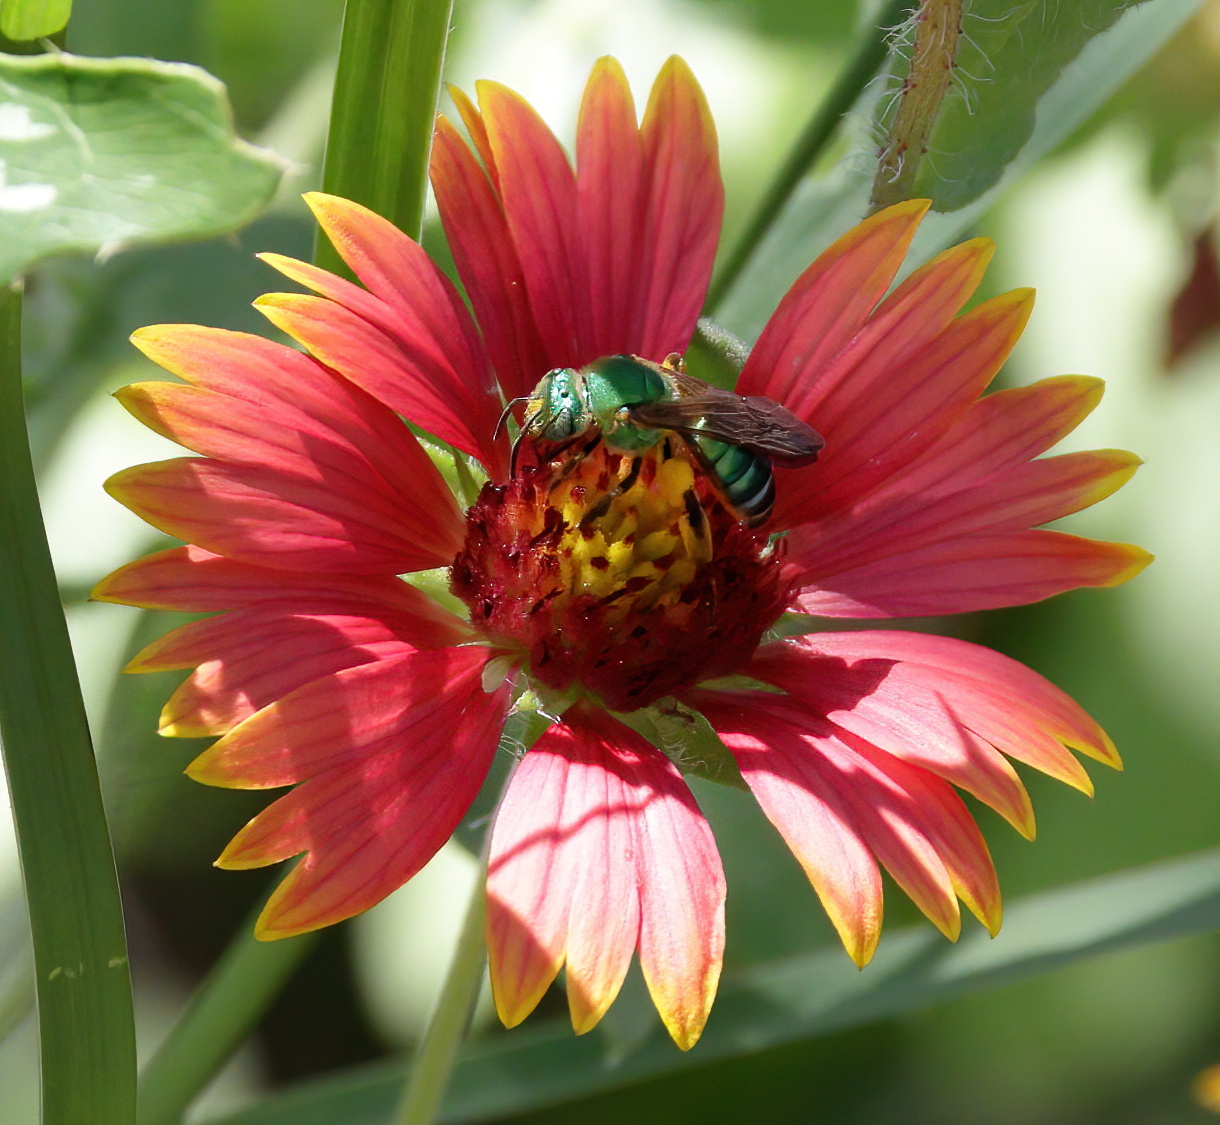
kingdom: Animalia
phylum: Arthropoda
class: Insecta
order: Hymenoptera
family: Halictidae
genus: Agapostemon
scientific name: Agapostemon splendens
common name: Brown-winged striped sweat bee
